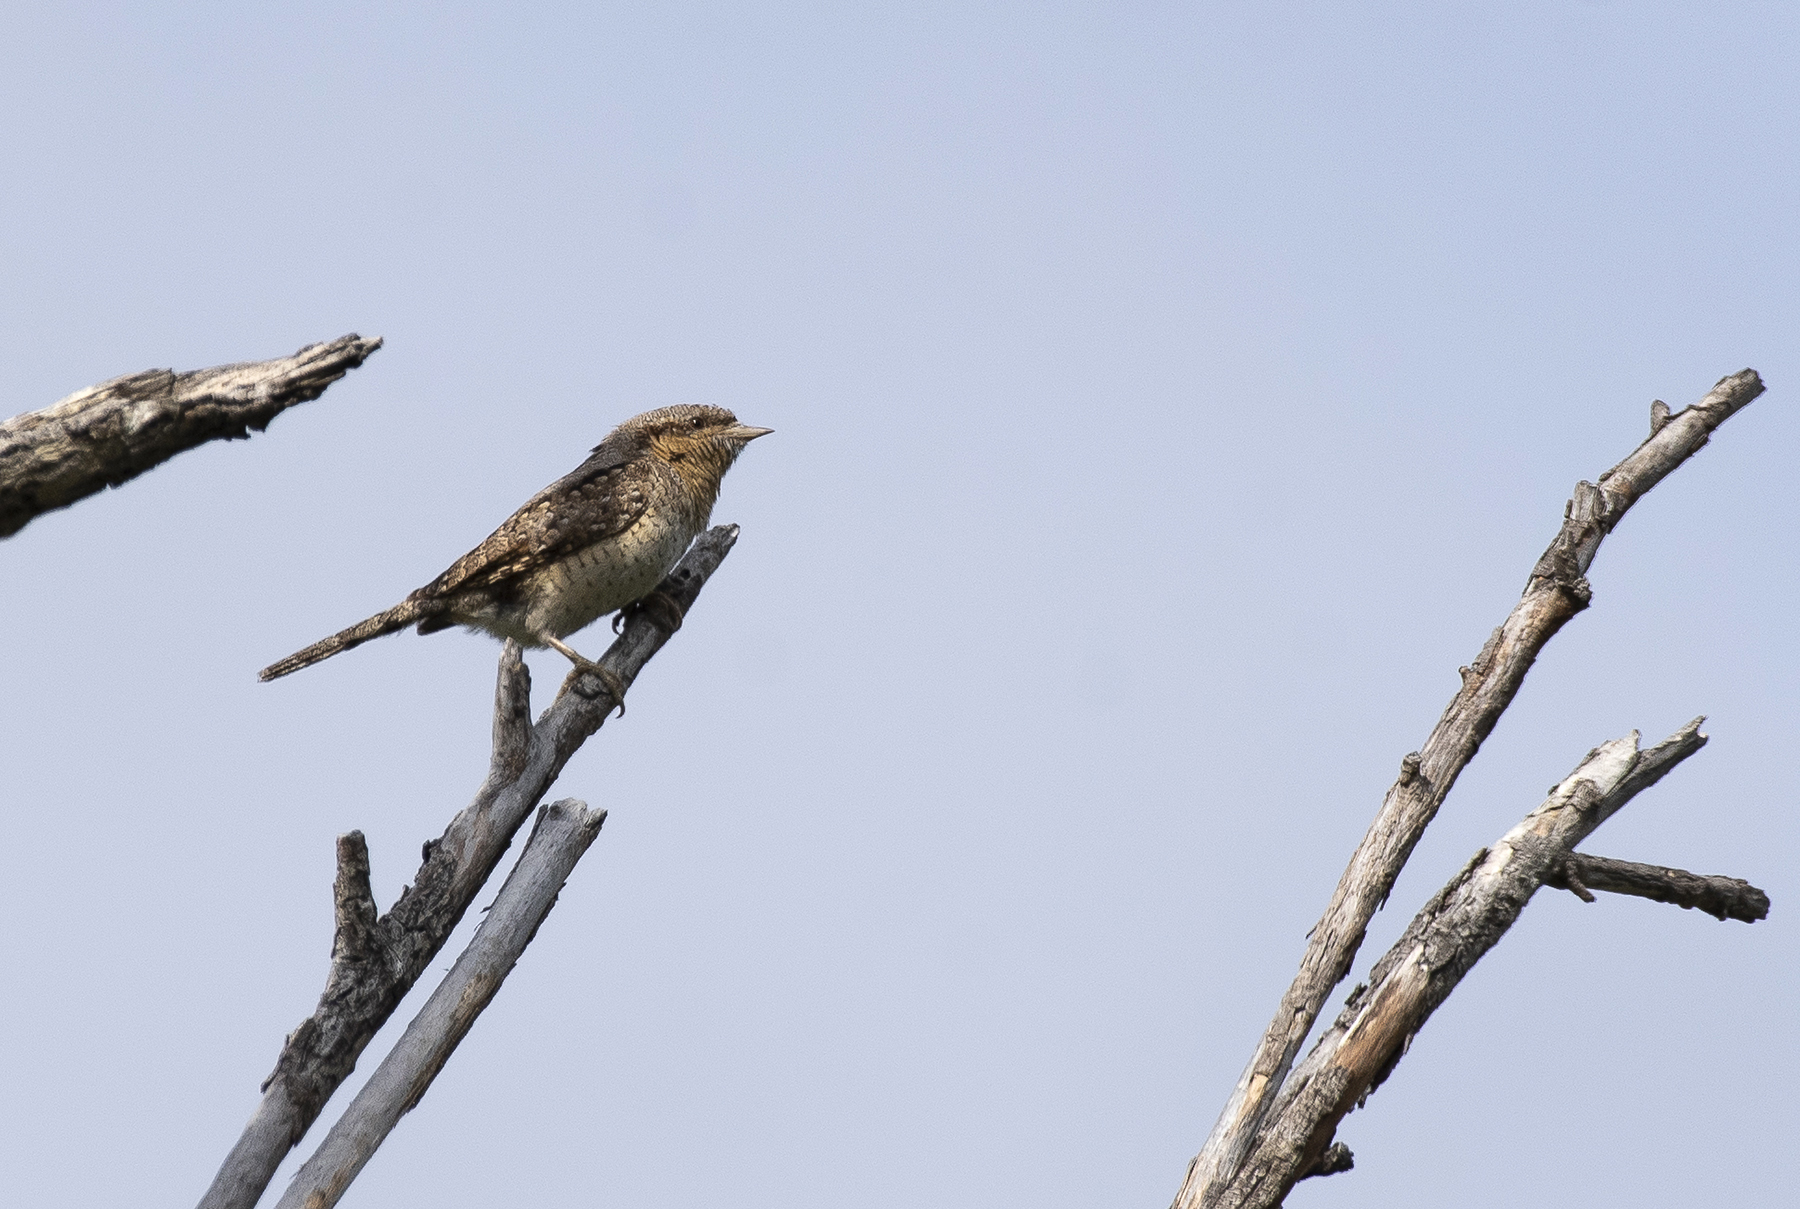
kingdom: Animalia
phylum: Chordata
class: Aves
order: Piciformes
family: Picidae
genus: Jynx
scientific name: Jynx torquilla
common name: Eurasian wryneck
